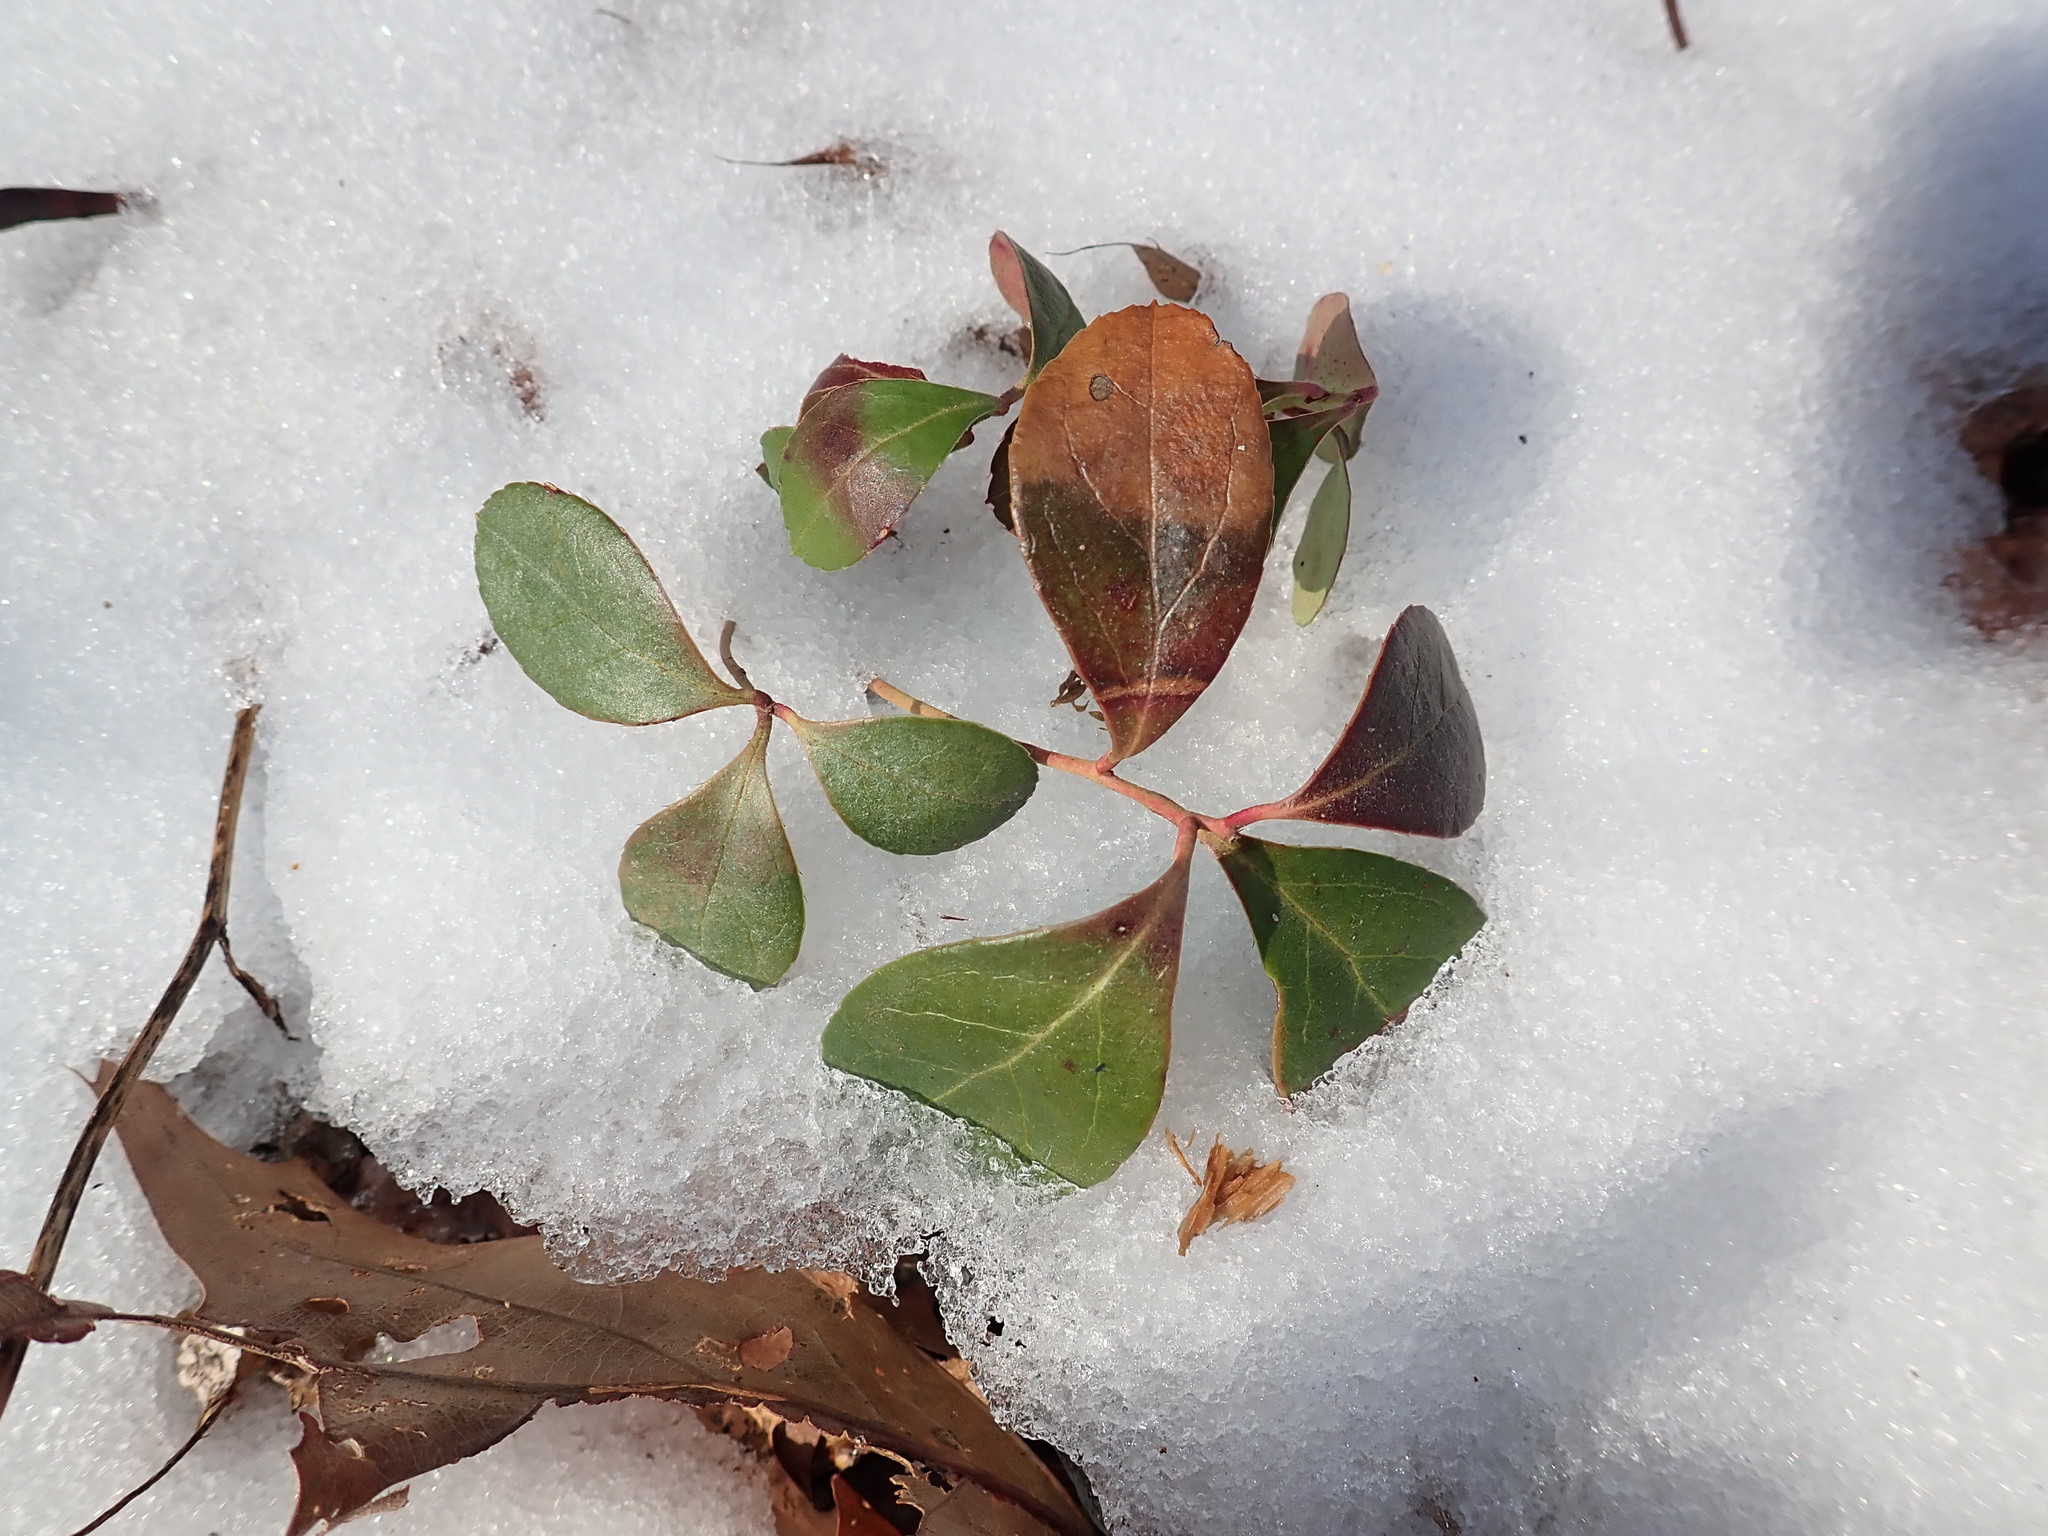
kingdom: Plantae
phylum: Tracheophyta
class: Magnoliopsida
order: Ericales
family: Ericaceae
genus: Gaultheria
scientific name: Gaultheria procumbens
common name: Checkerberry
